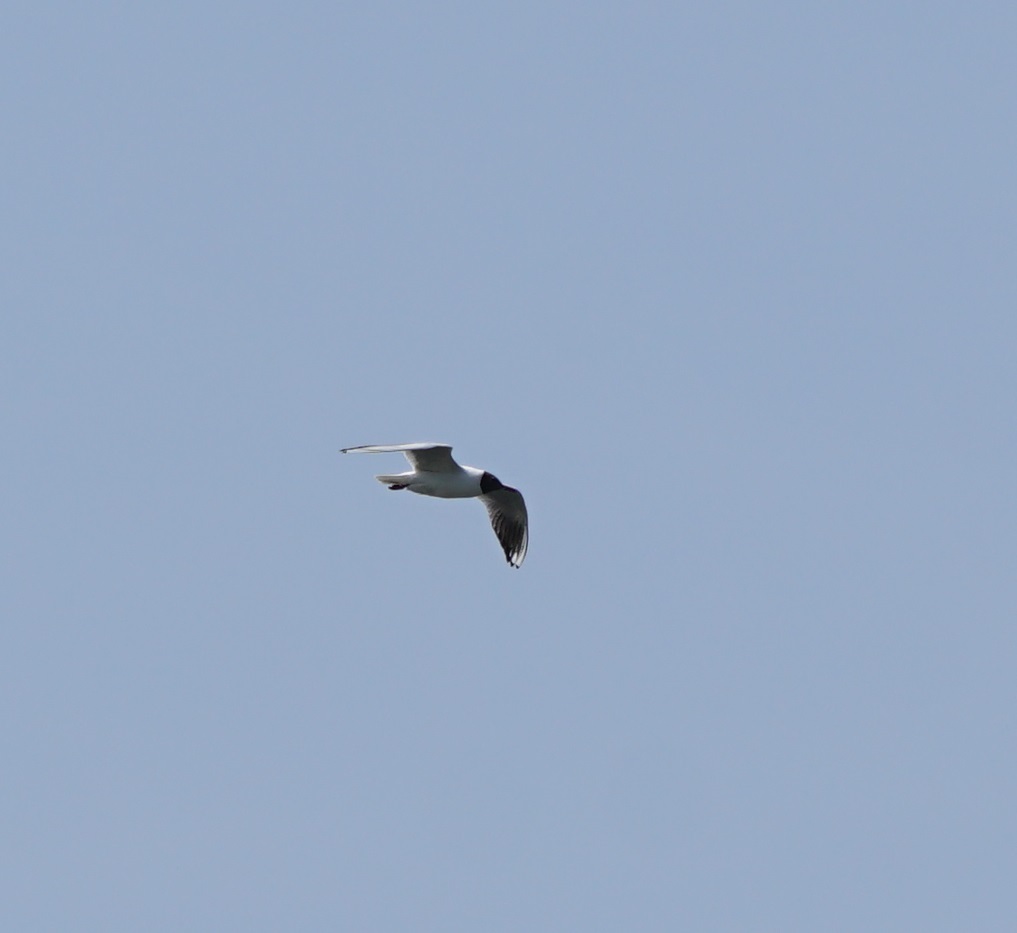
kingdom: Animalia
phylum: Chordata
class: Aves
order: Charadriiformes
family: Laridae
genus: Chroicocephalus
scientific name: Chroicocephalus ridibundus
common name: Black-headed gull
